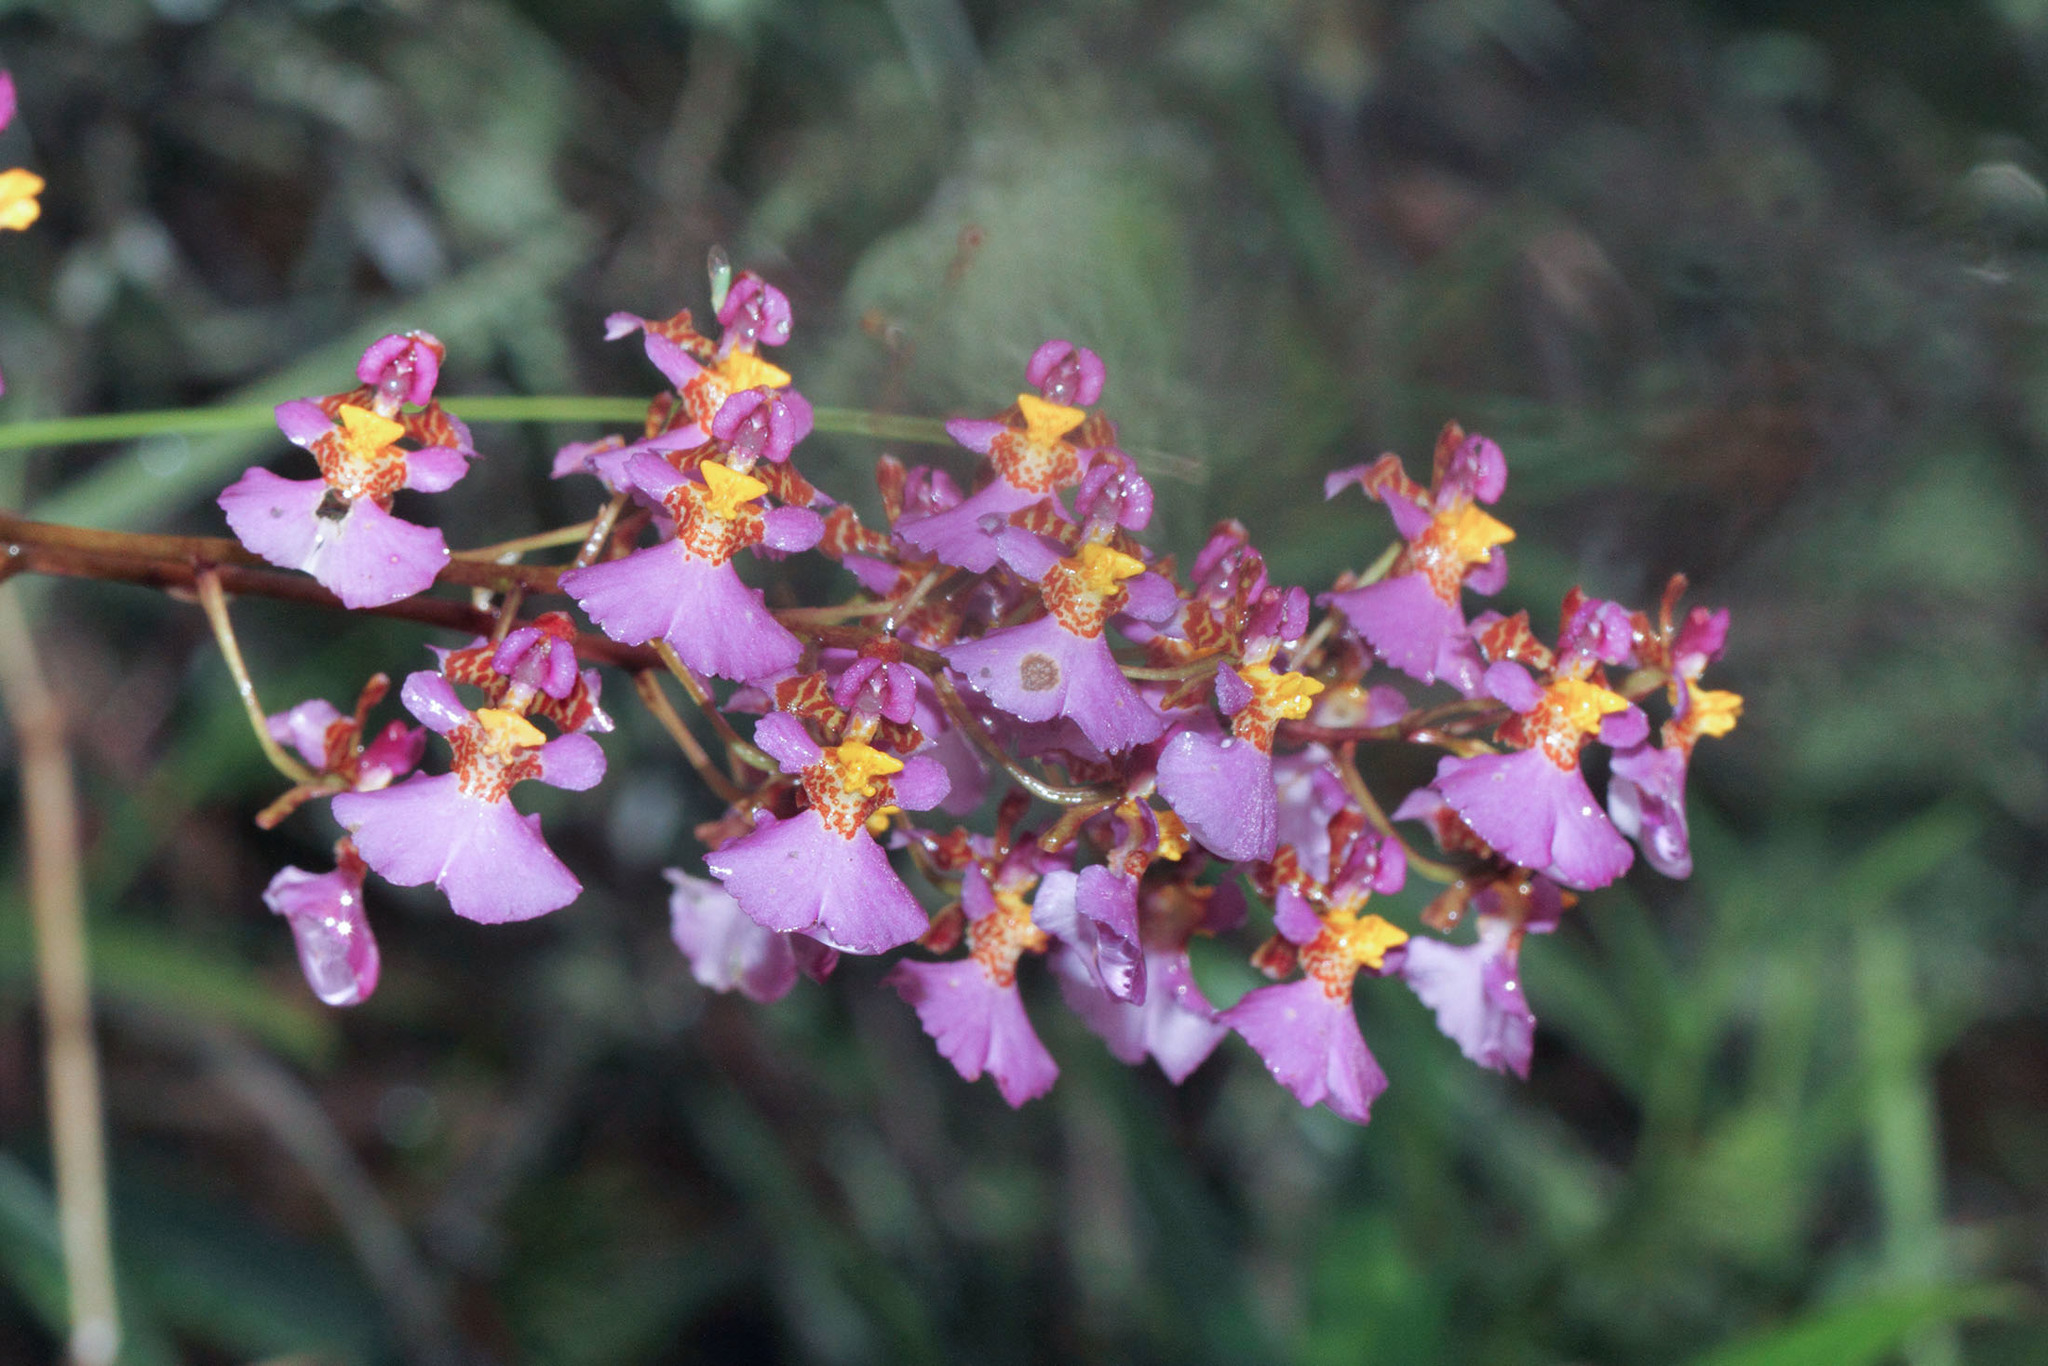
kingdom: Plantae
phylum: Tracheophyta
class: Liliopsida
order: Asparagales
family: Orchidaceae
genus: Tolumnia
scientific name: Tolumnia variegata
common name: Harlequin dancing-lady orchid
